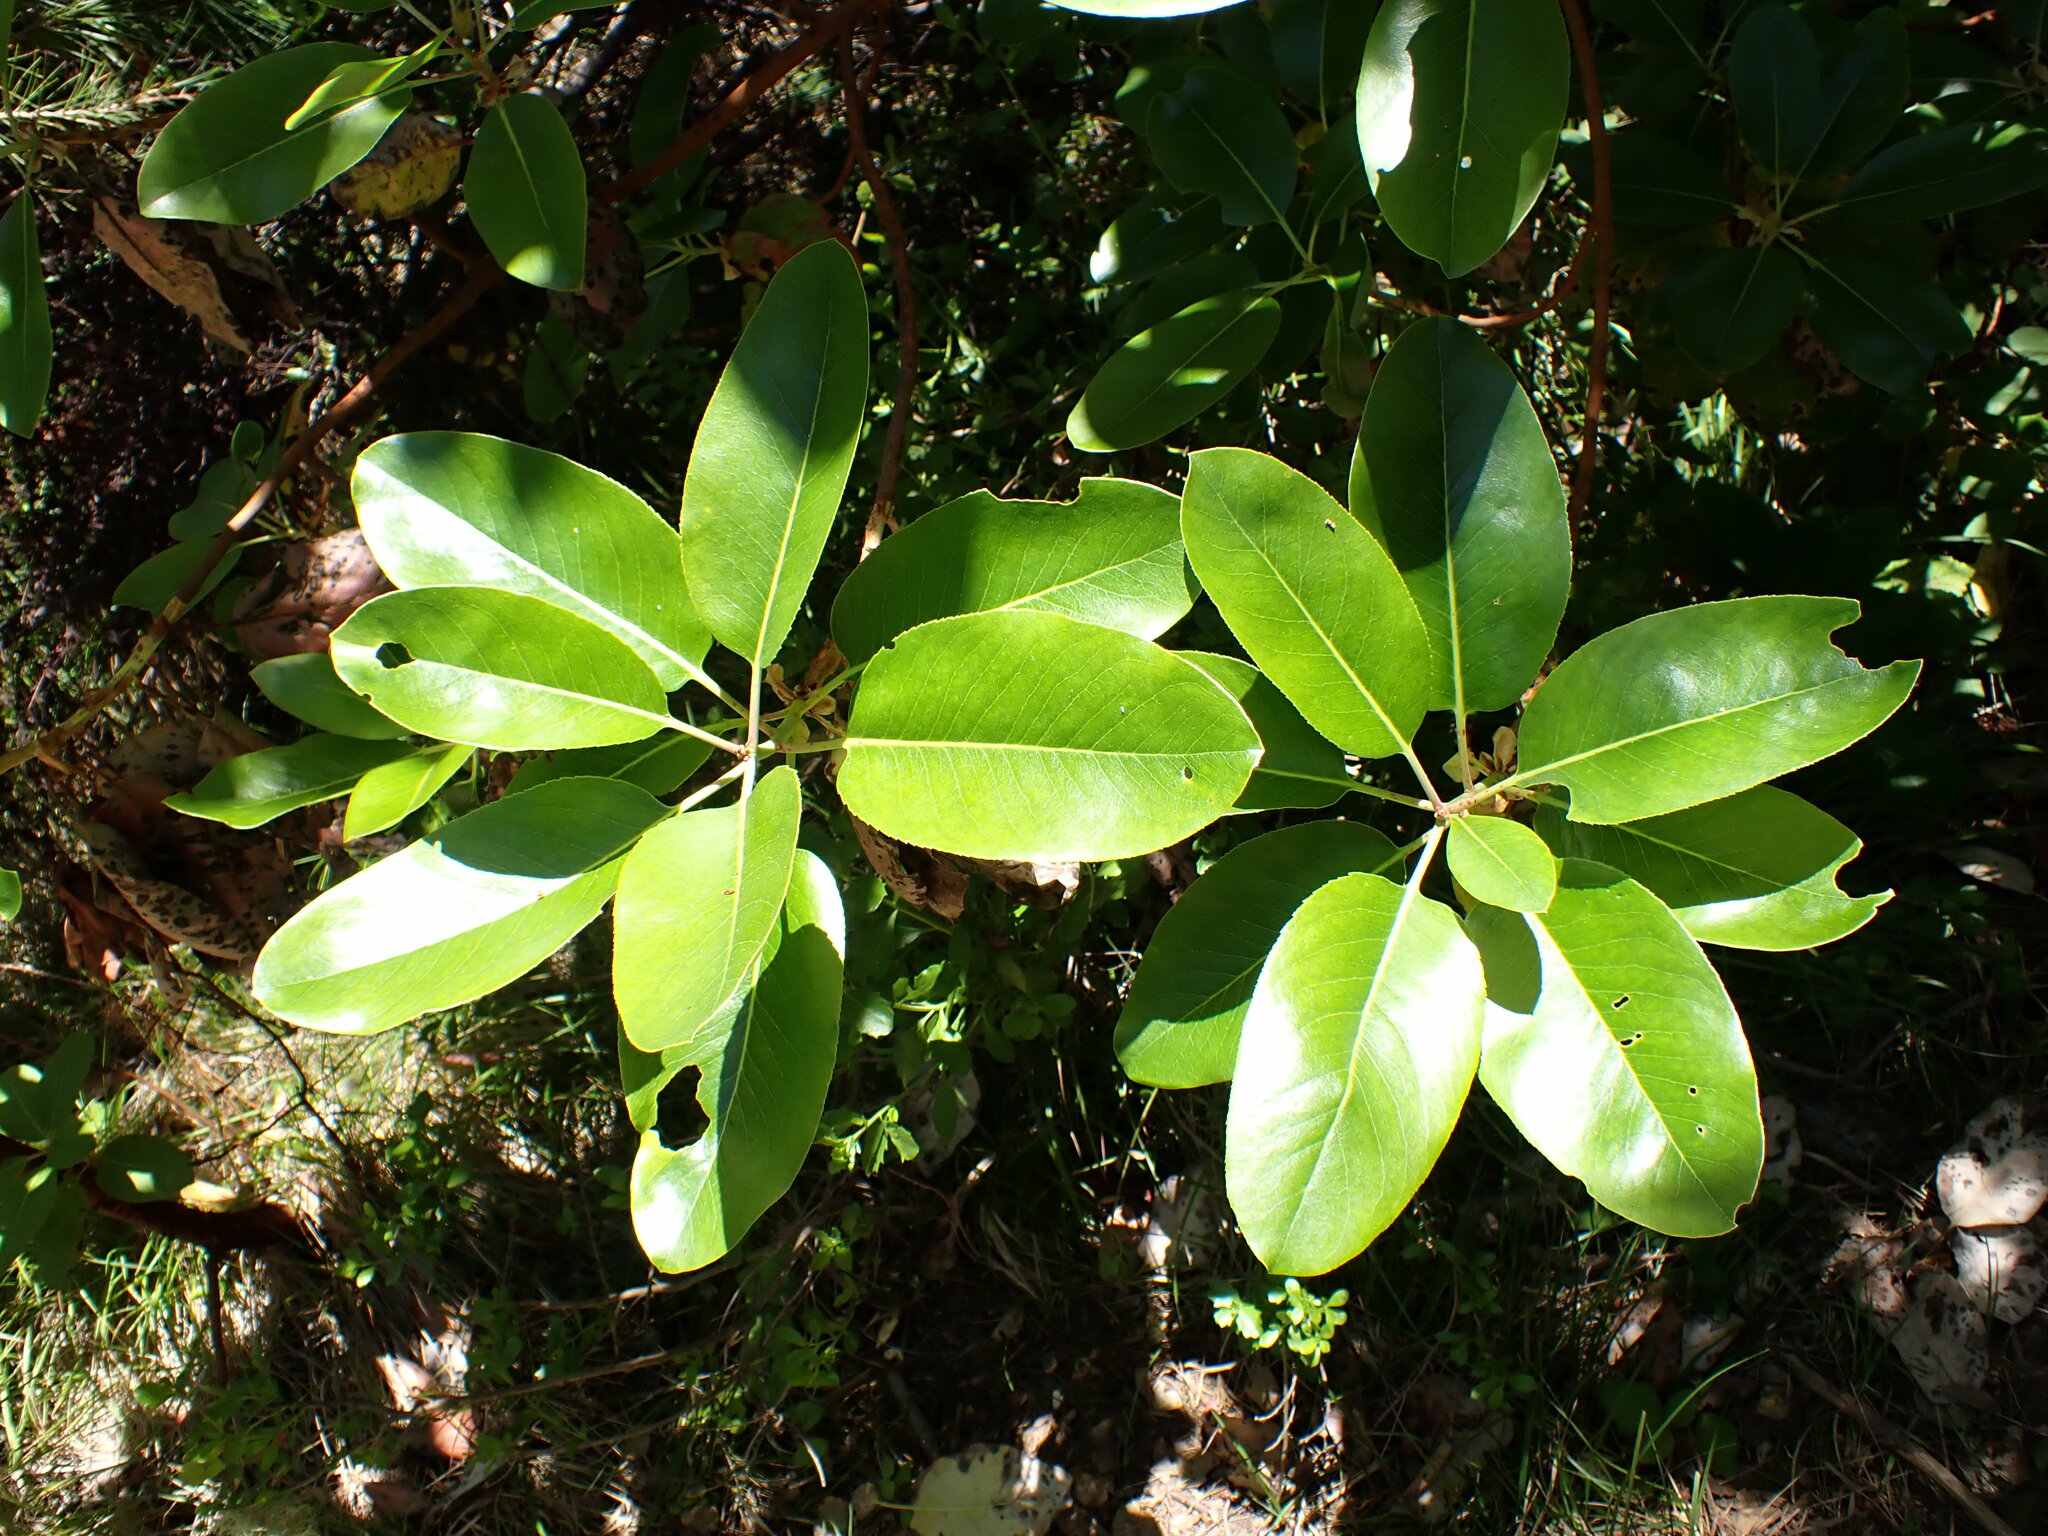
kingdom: Plantae
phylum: Tracheophyta
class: Magnoliopsida
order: Ericales
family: Ericaceae
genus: Arbutus
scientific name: Arbutus menziesii
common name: Pacific madrone
